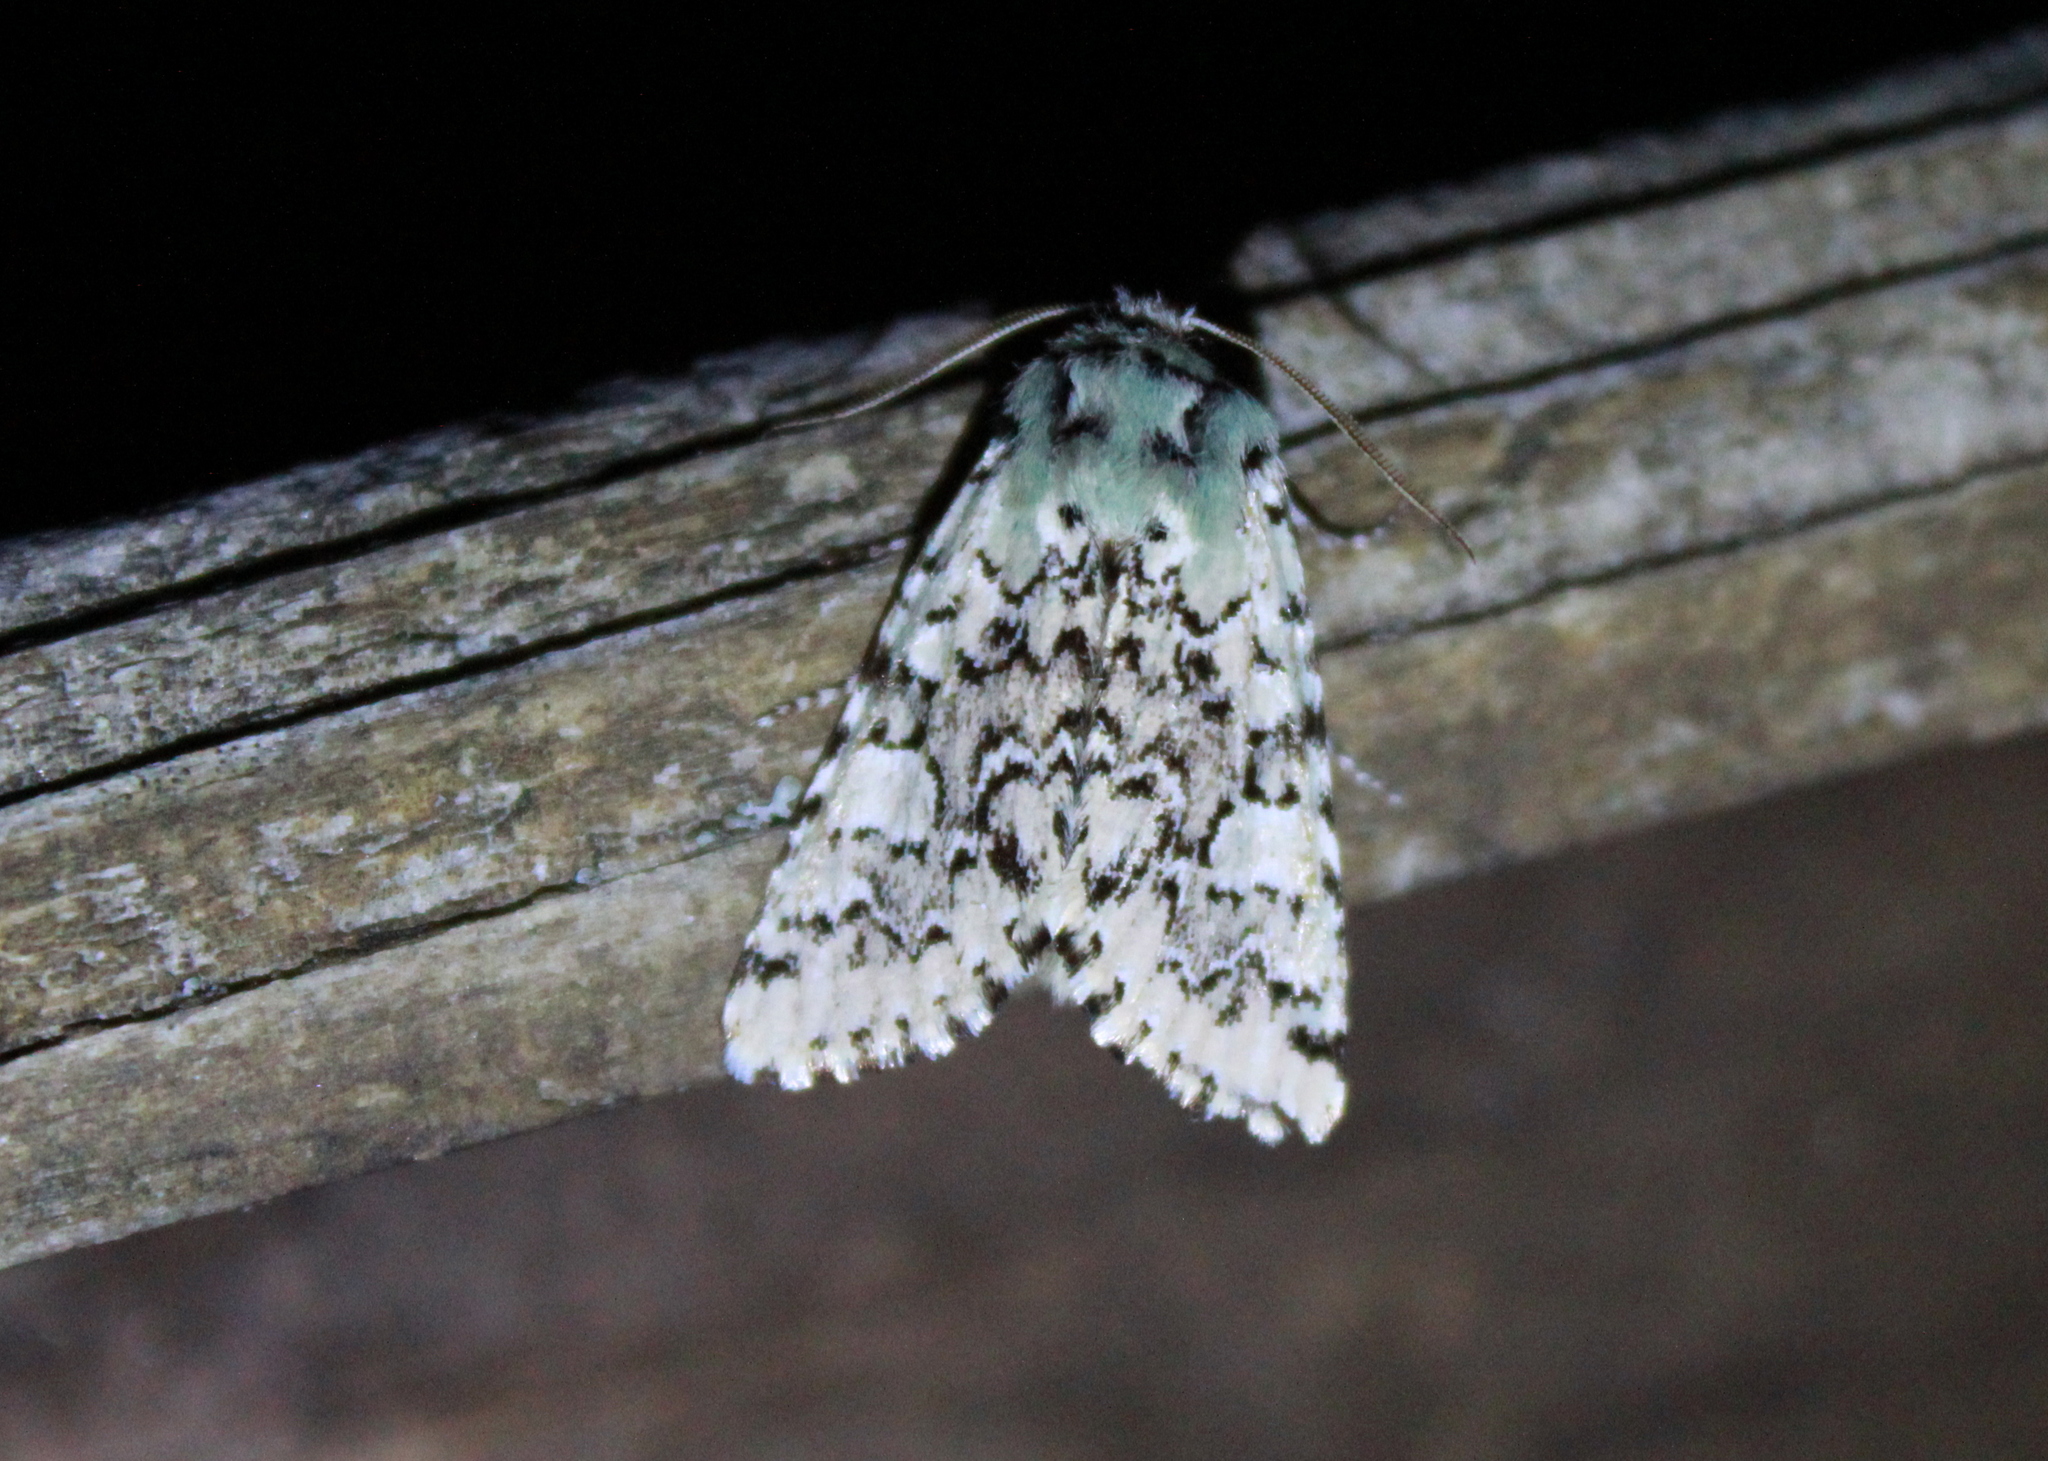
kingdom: Animalia
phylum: Arthropoda
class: Insecta
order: Lepidoptera
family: Noctuidae
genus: Feralia
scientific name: Feralia jocosa
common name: Joker
